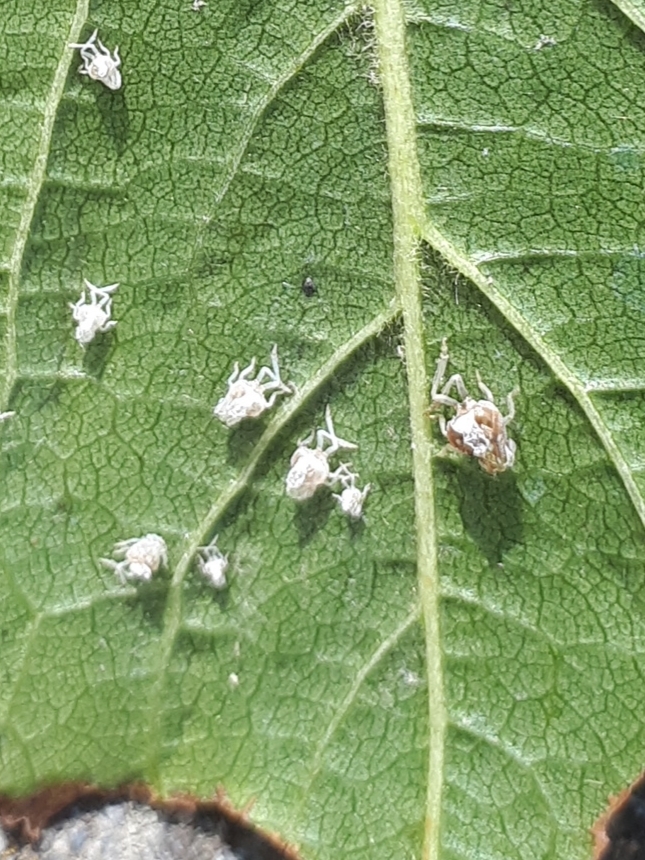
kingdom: Animalia
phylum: Arthropoda
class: Insecta
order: Hemiptera
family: Ricaniidae
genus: Scolypopa
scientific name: Scolypopa australis
